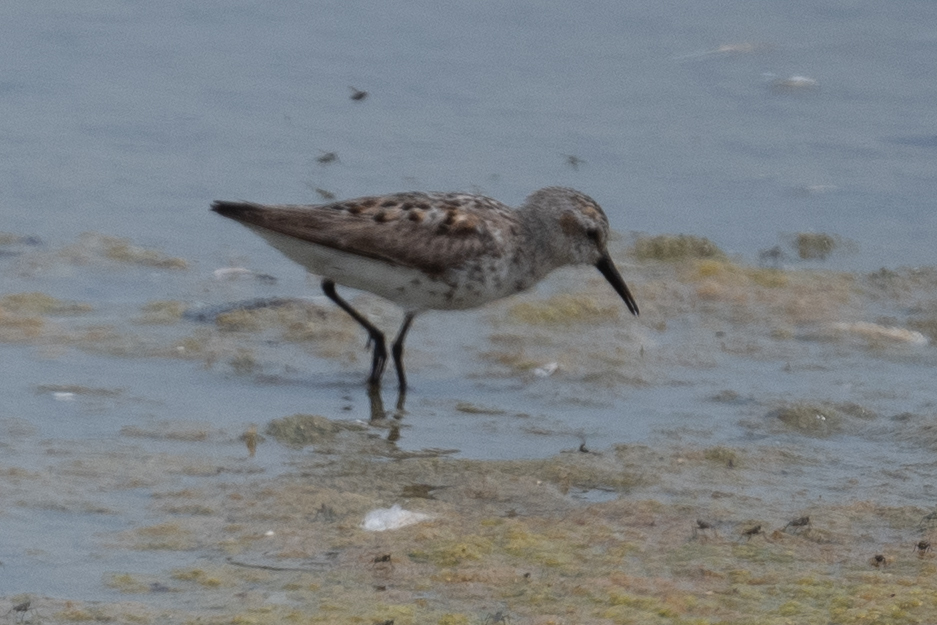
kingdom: Animalia
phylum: Chordata
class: Aves
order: Charadriiformes
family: Scolopacidae
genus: Calidris
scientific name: Calidris mauri
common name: Western sandpiper
